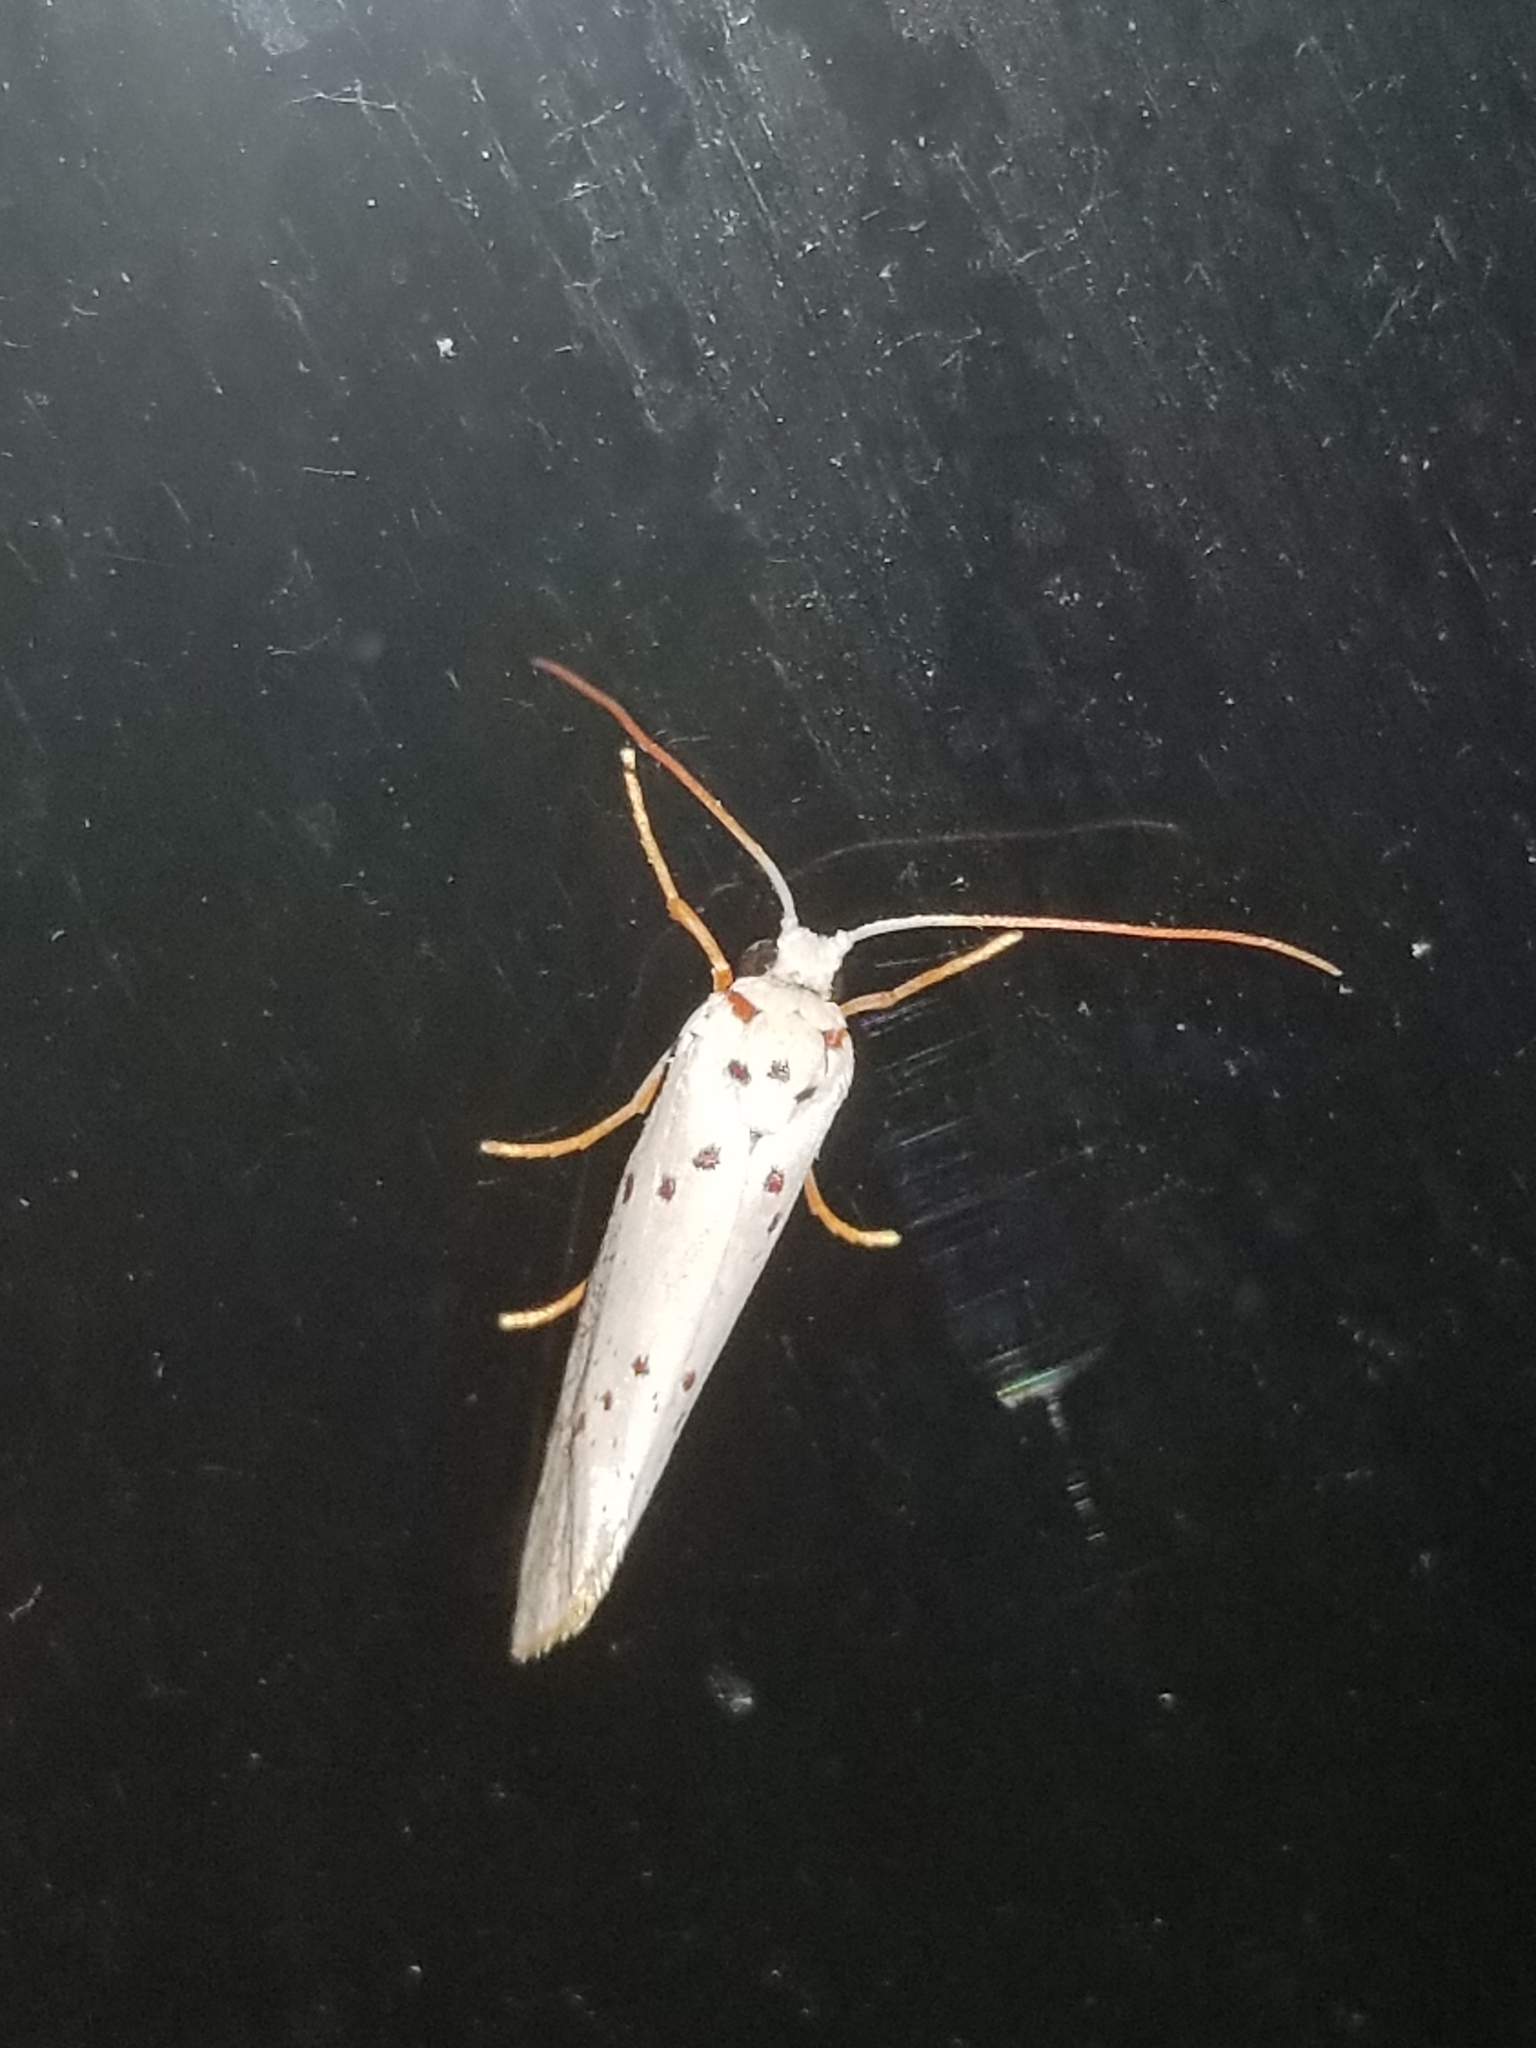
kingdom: Animalia
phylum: Arthropoda
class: Insecta
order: Lepidoptera
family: Lacturidae
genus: Lactura
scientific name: Lactura
